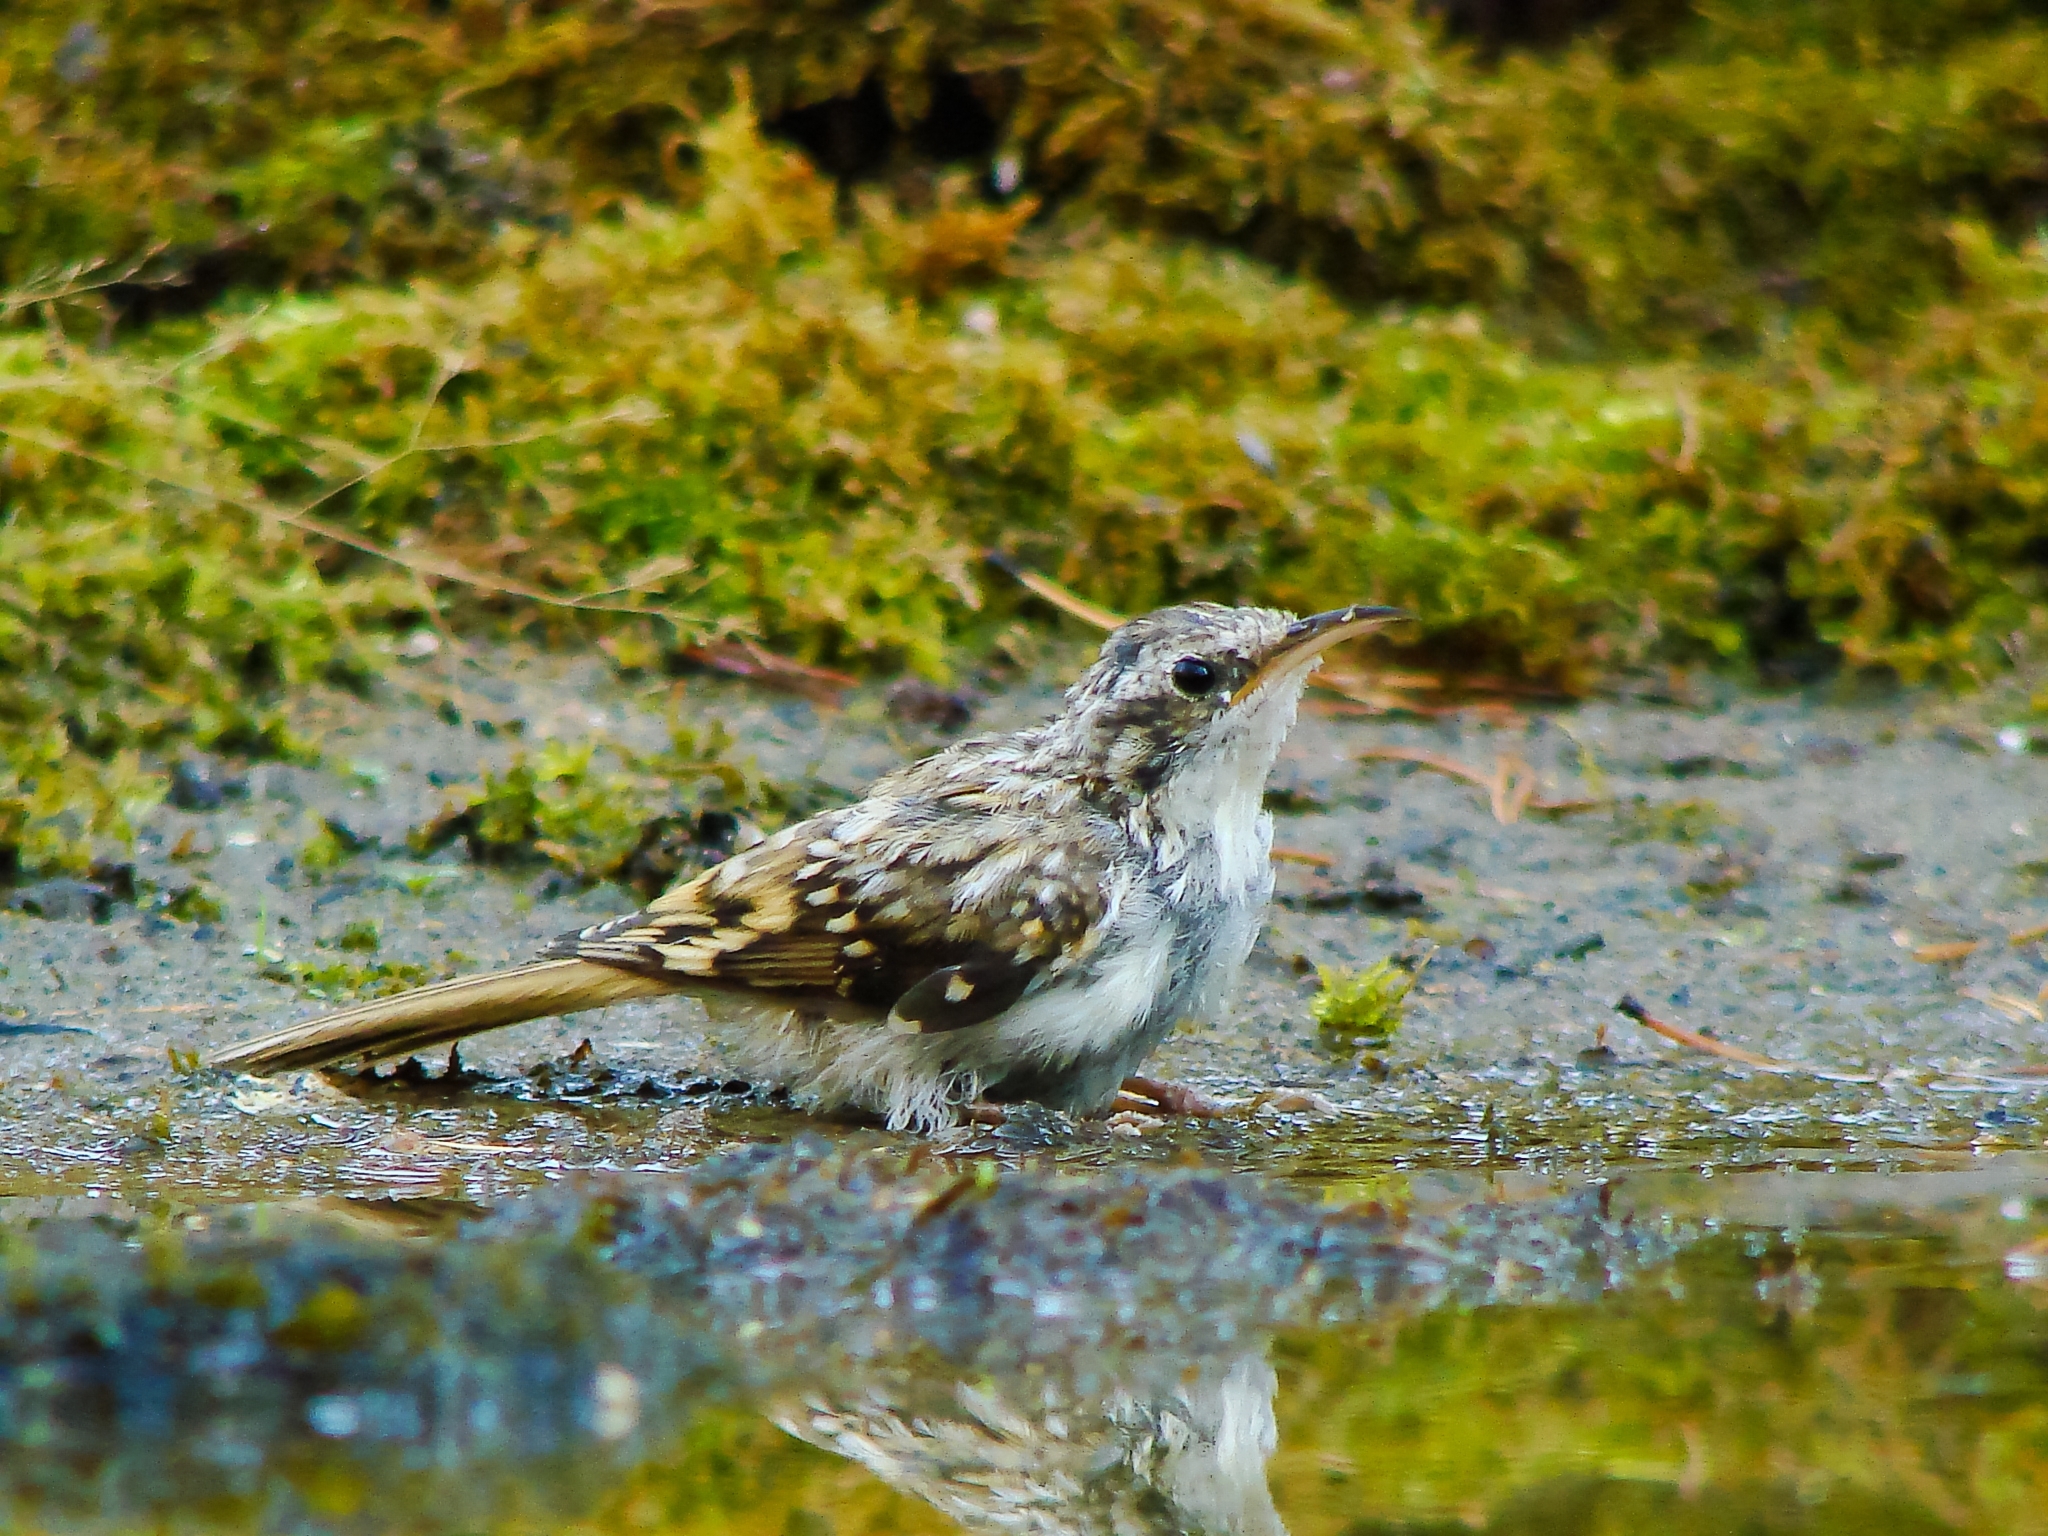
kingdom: Animalia
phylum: Chordata
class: Aves
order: Passeriformes
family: Certhiidae
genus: Certhia
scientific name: Certhia familiaris
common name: Eurasian treecreeper
